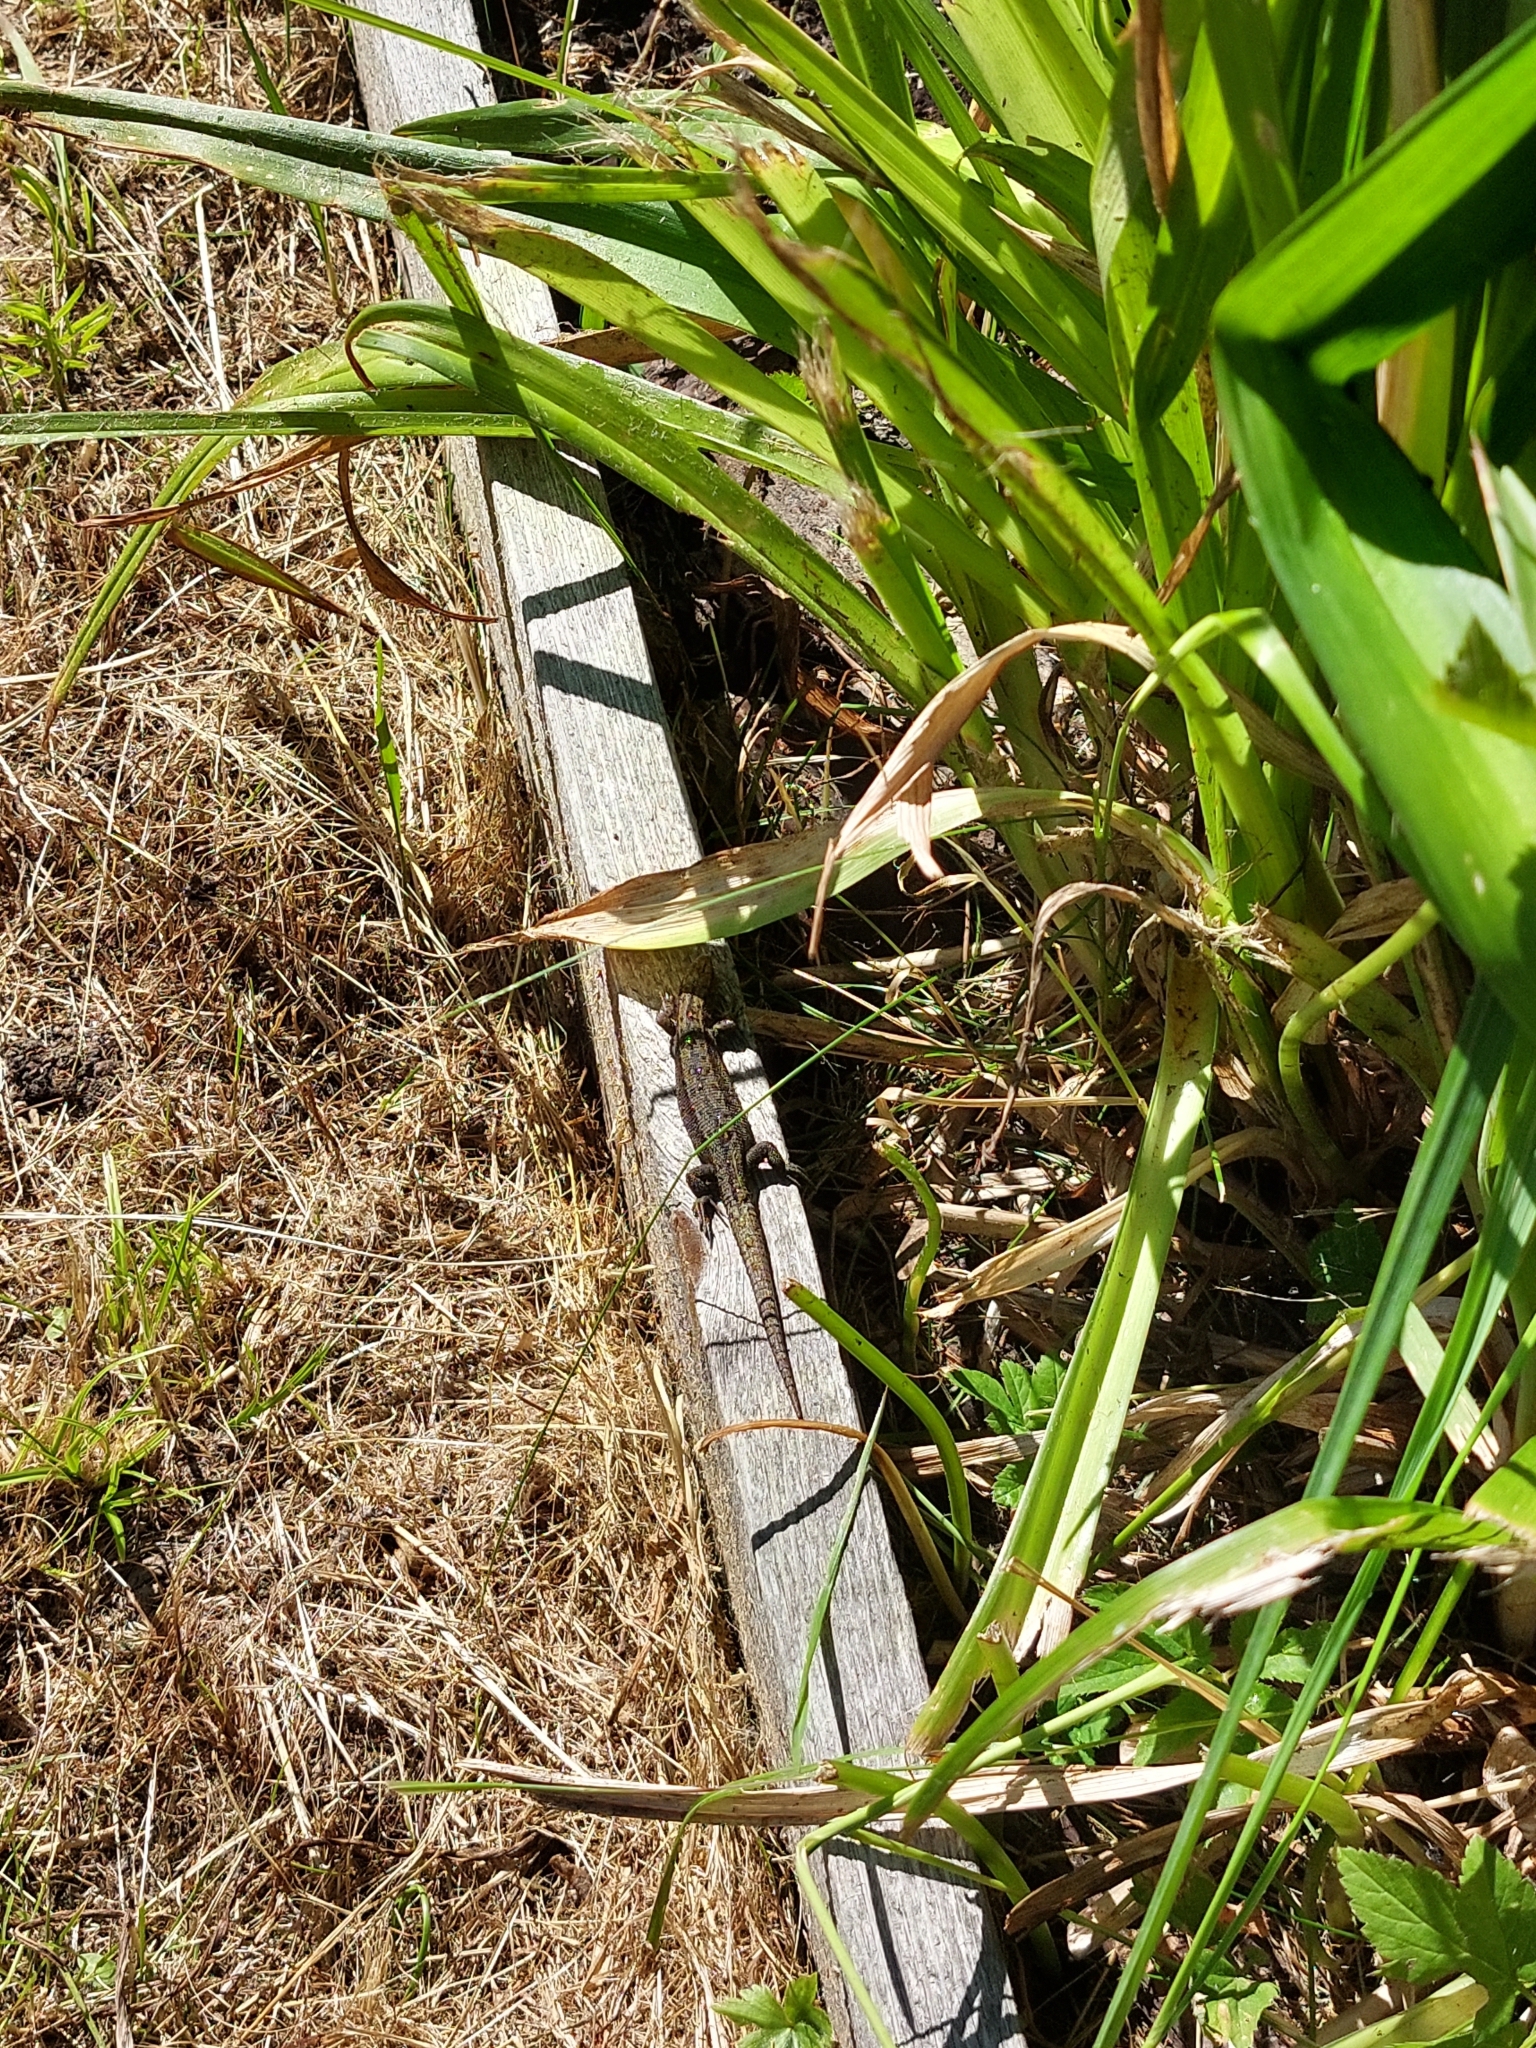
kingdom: Animalia
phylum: Chordata
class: Squamata
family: Lacertidae
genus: Zootoca
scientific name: Zootoca vivipara
